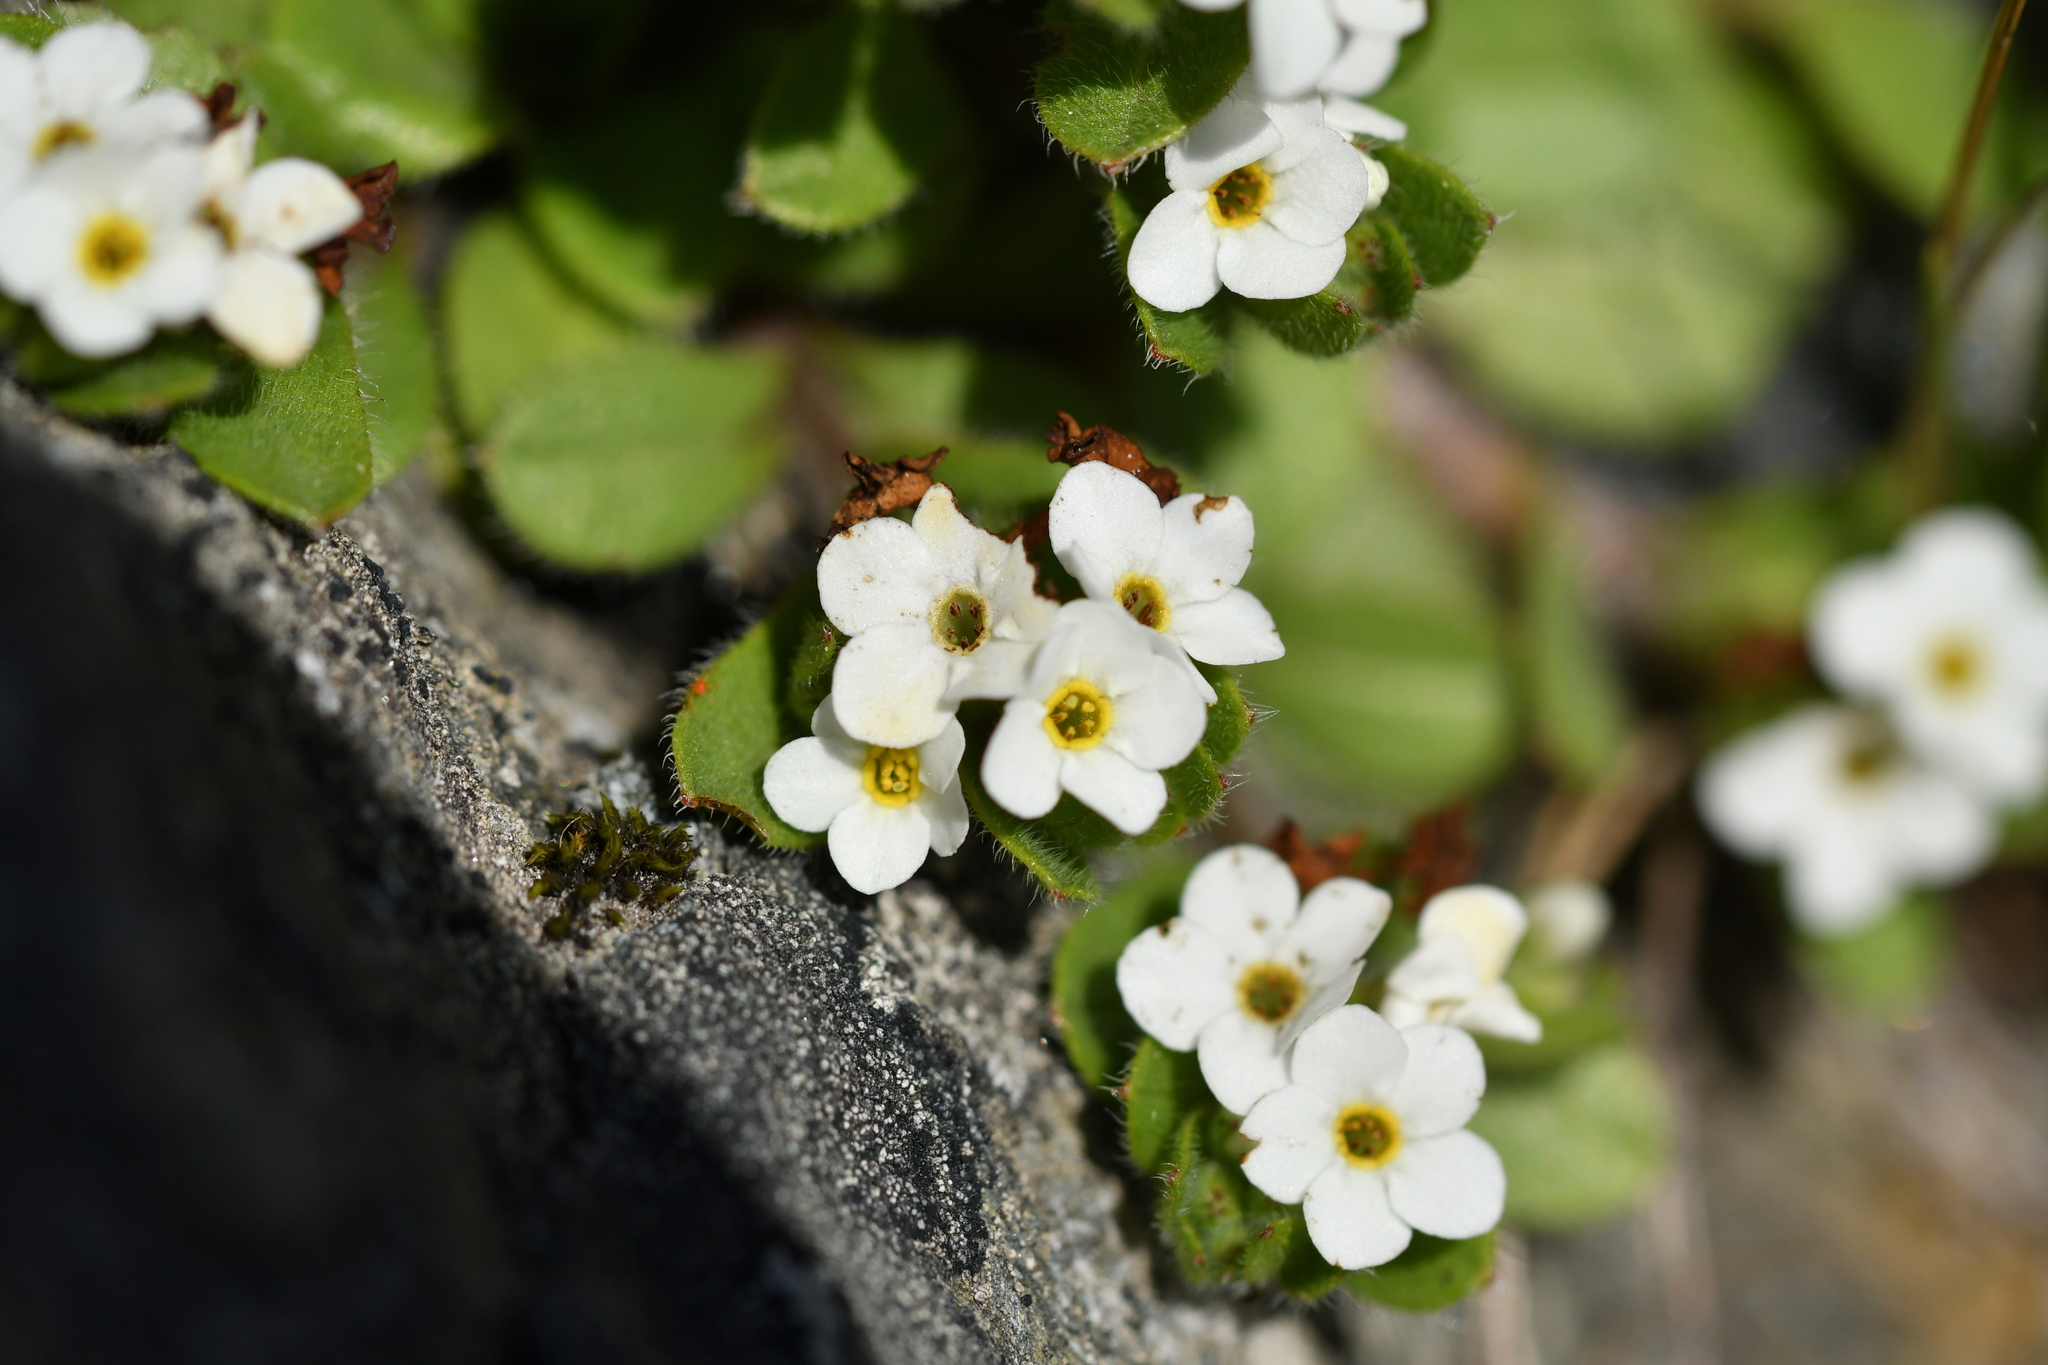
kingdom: Plantae
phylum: Tracheophyta
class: Magnoliopsida
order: Boraginales
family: Boraginaceae
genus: Myosotis
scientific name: Myosotis lyallii
